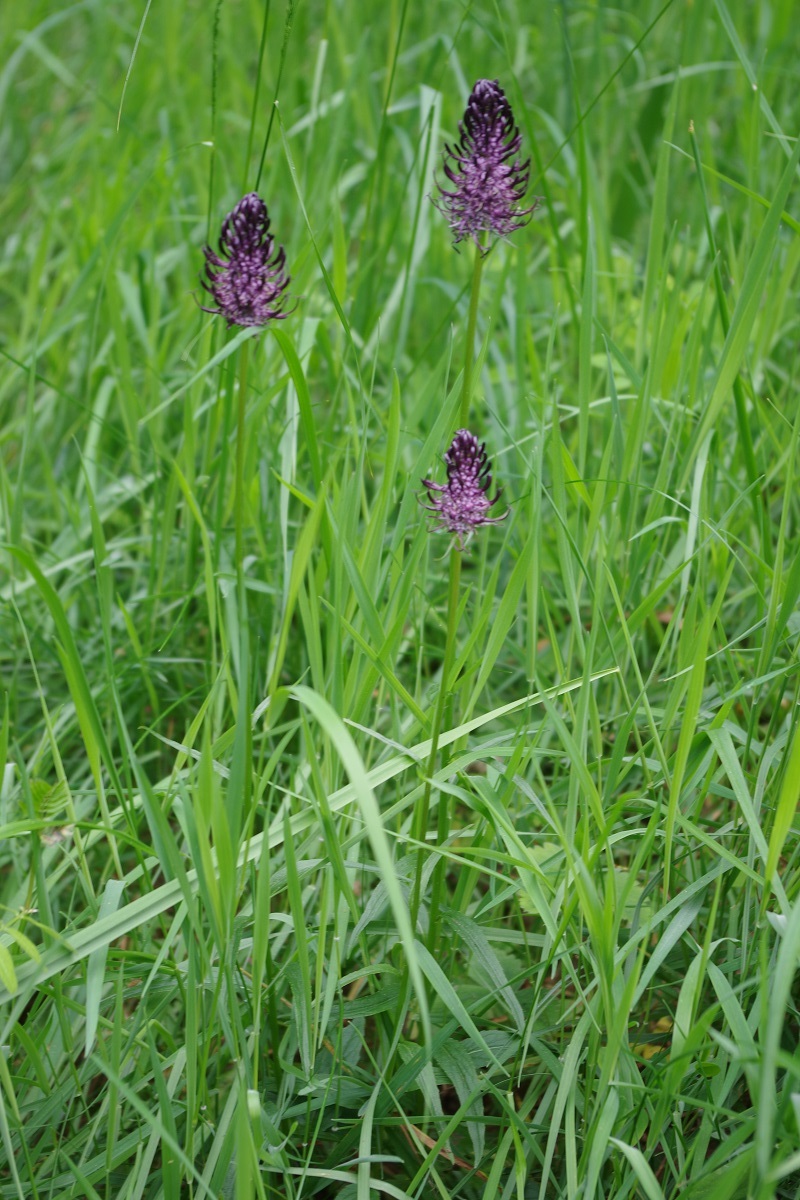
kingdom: Plantae
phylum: Tracheophyta
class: Magnoliopsida
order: Asterales
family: Campanulaceae
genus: Phyteuma
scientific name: Phyteuma nigrum
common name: Black rampion
